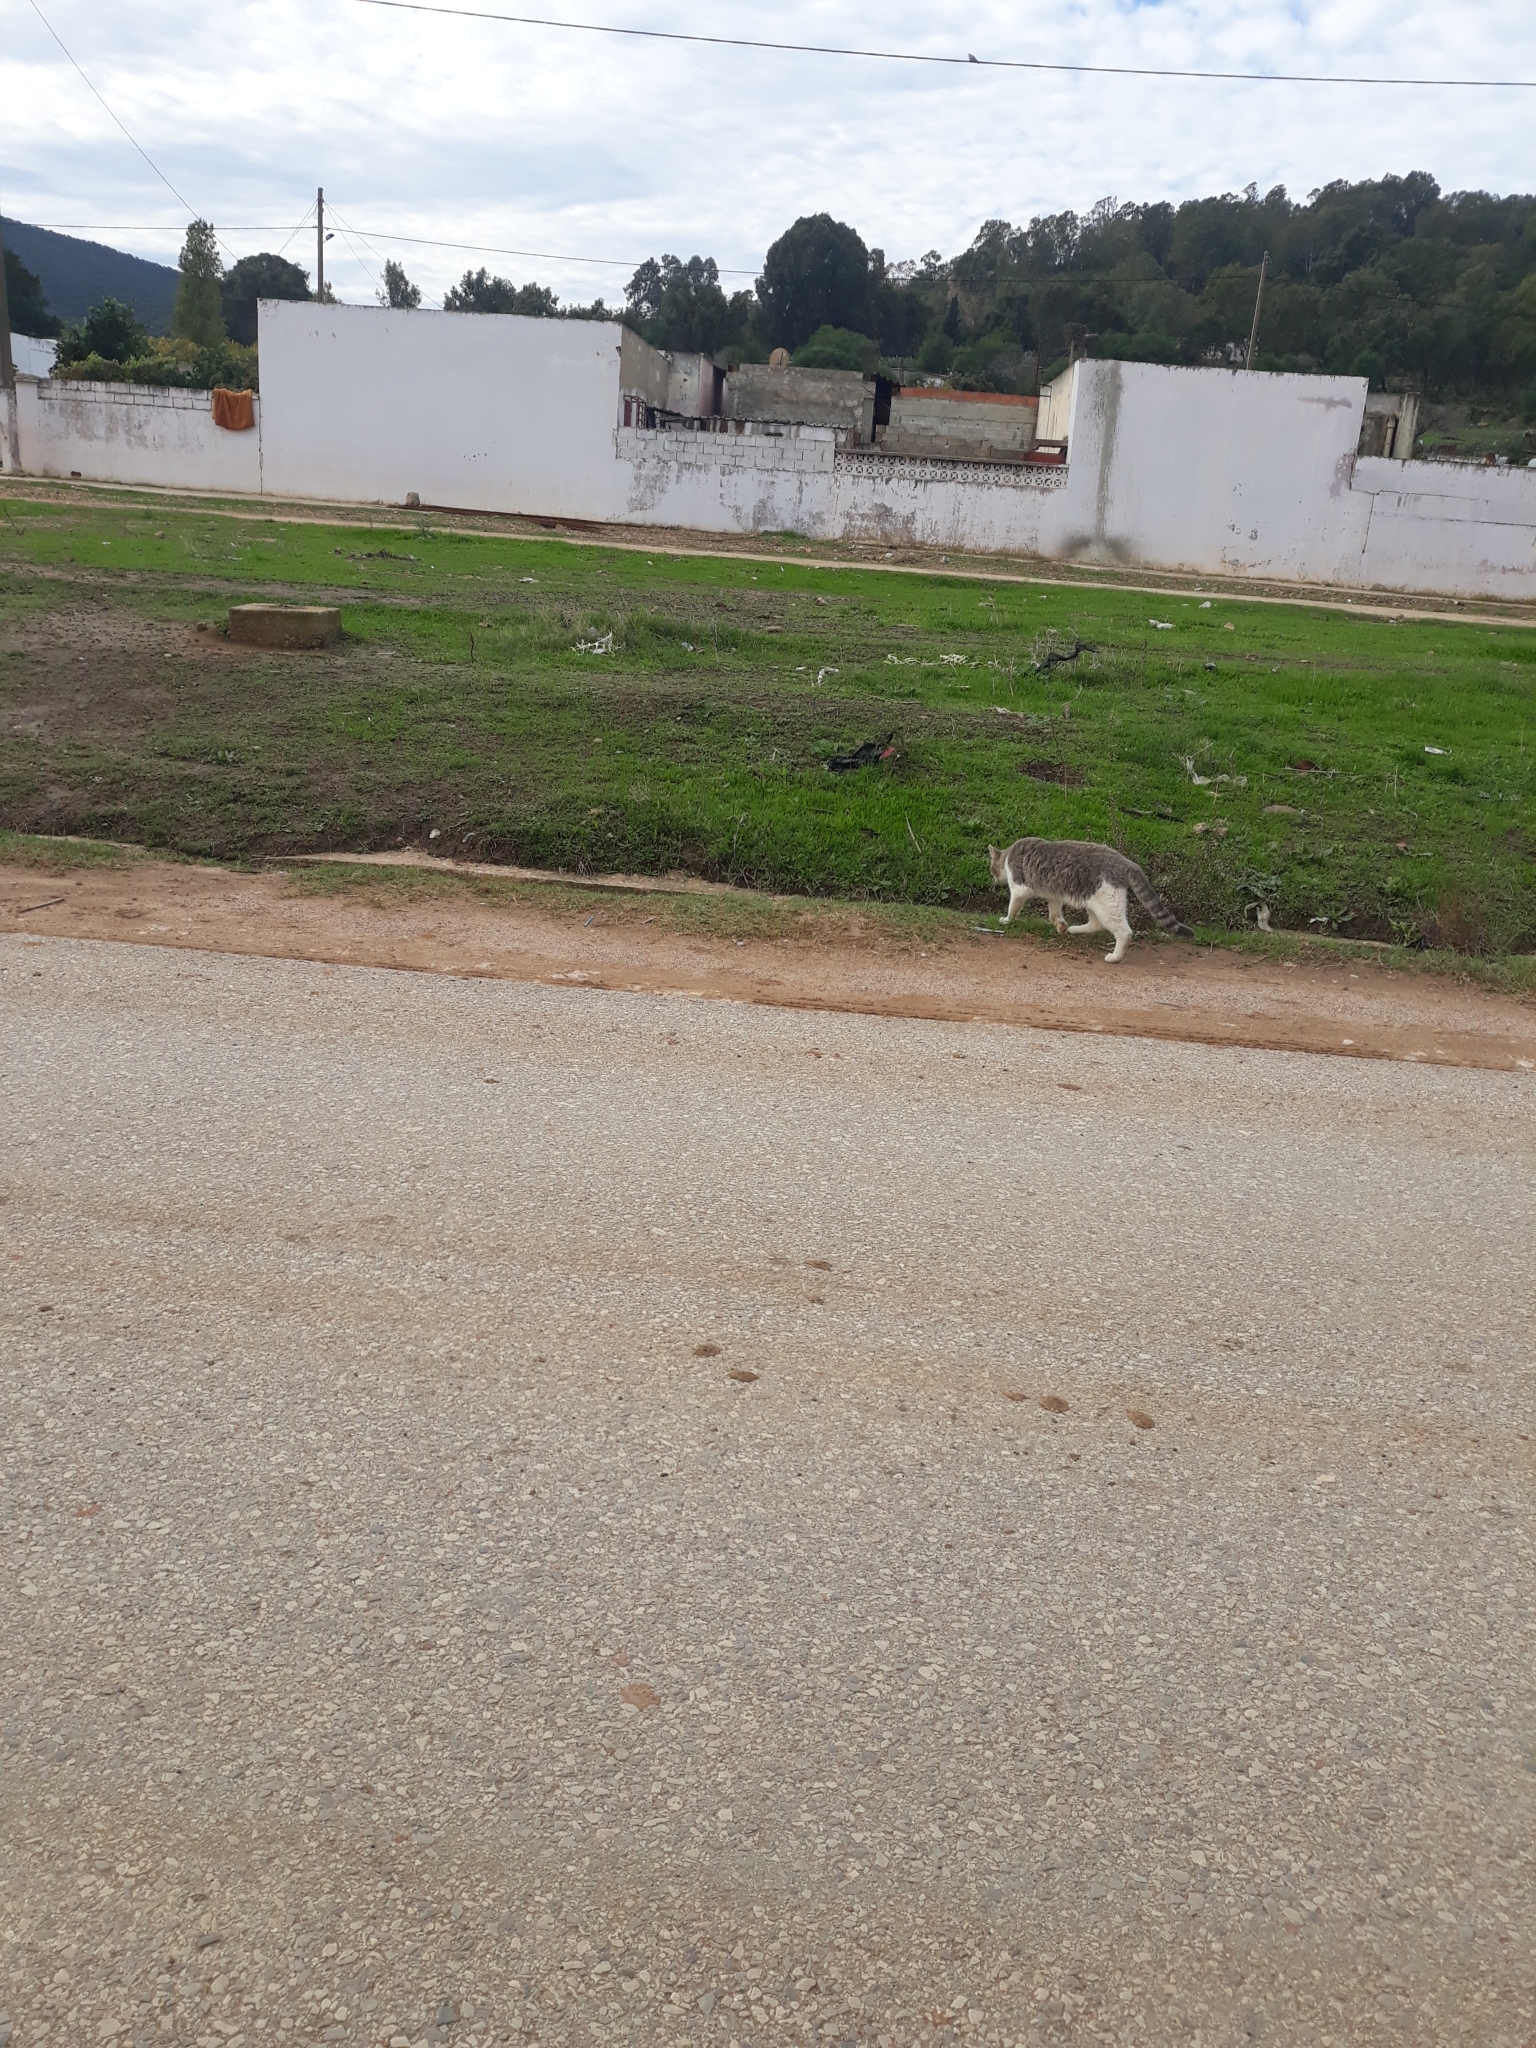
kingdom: Animalia
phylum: Chordata
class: Mammalia
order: Carnivora
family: Felidae
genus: Felis
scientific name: Felis catus
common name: Domestic cat
